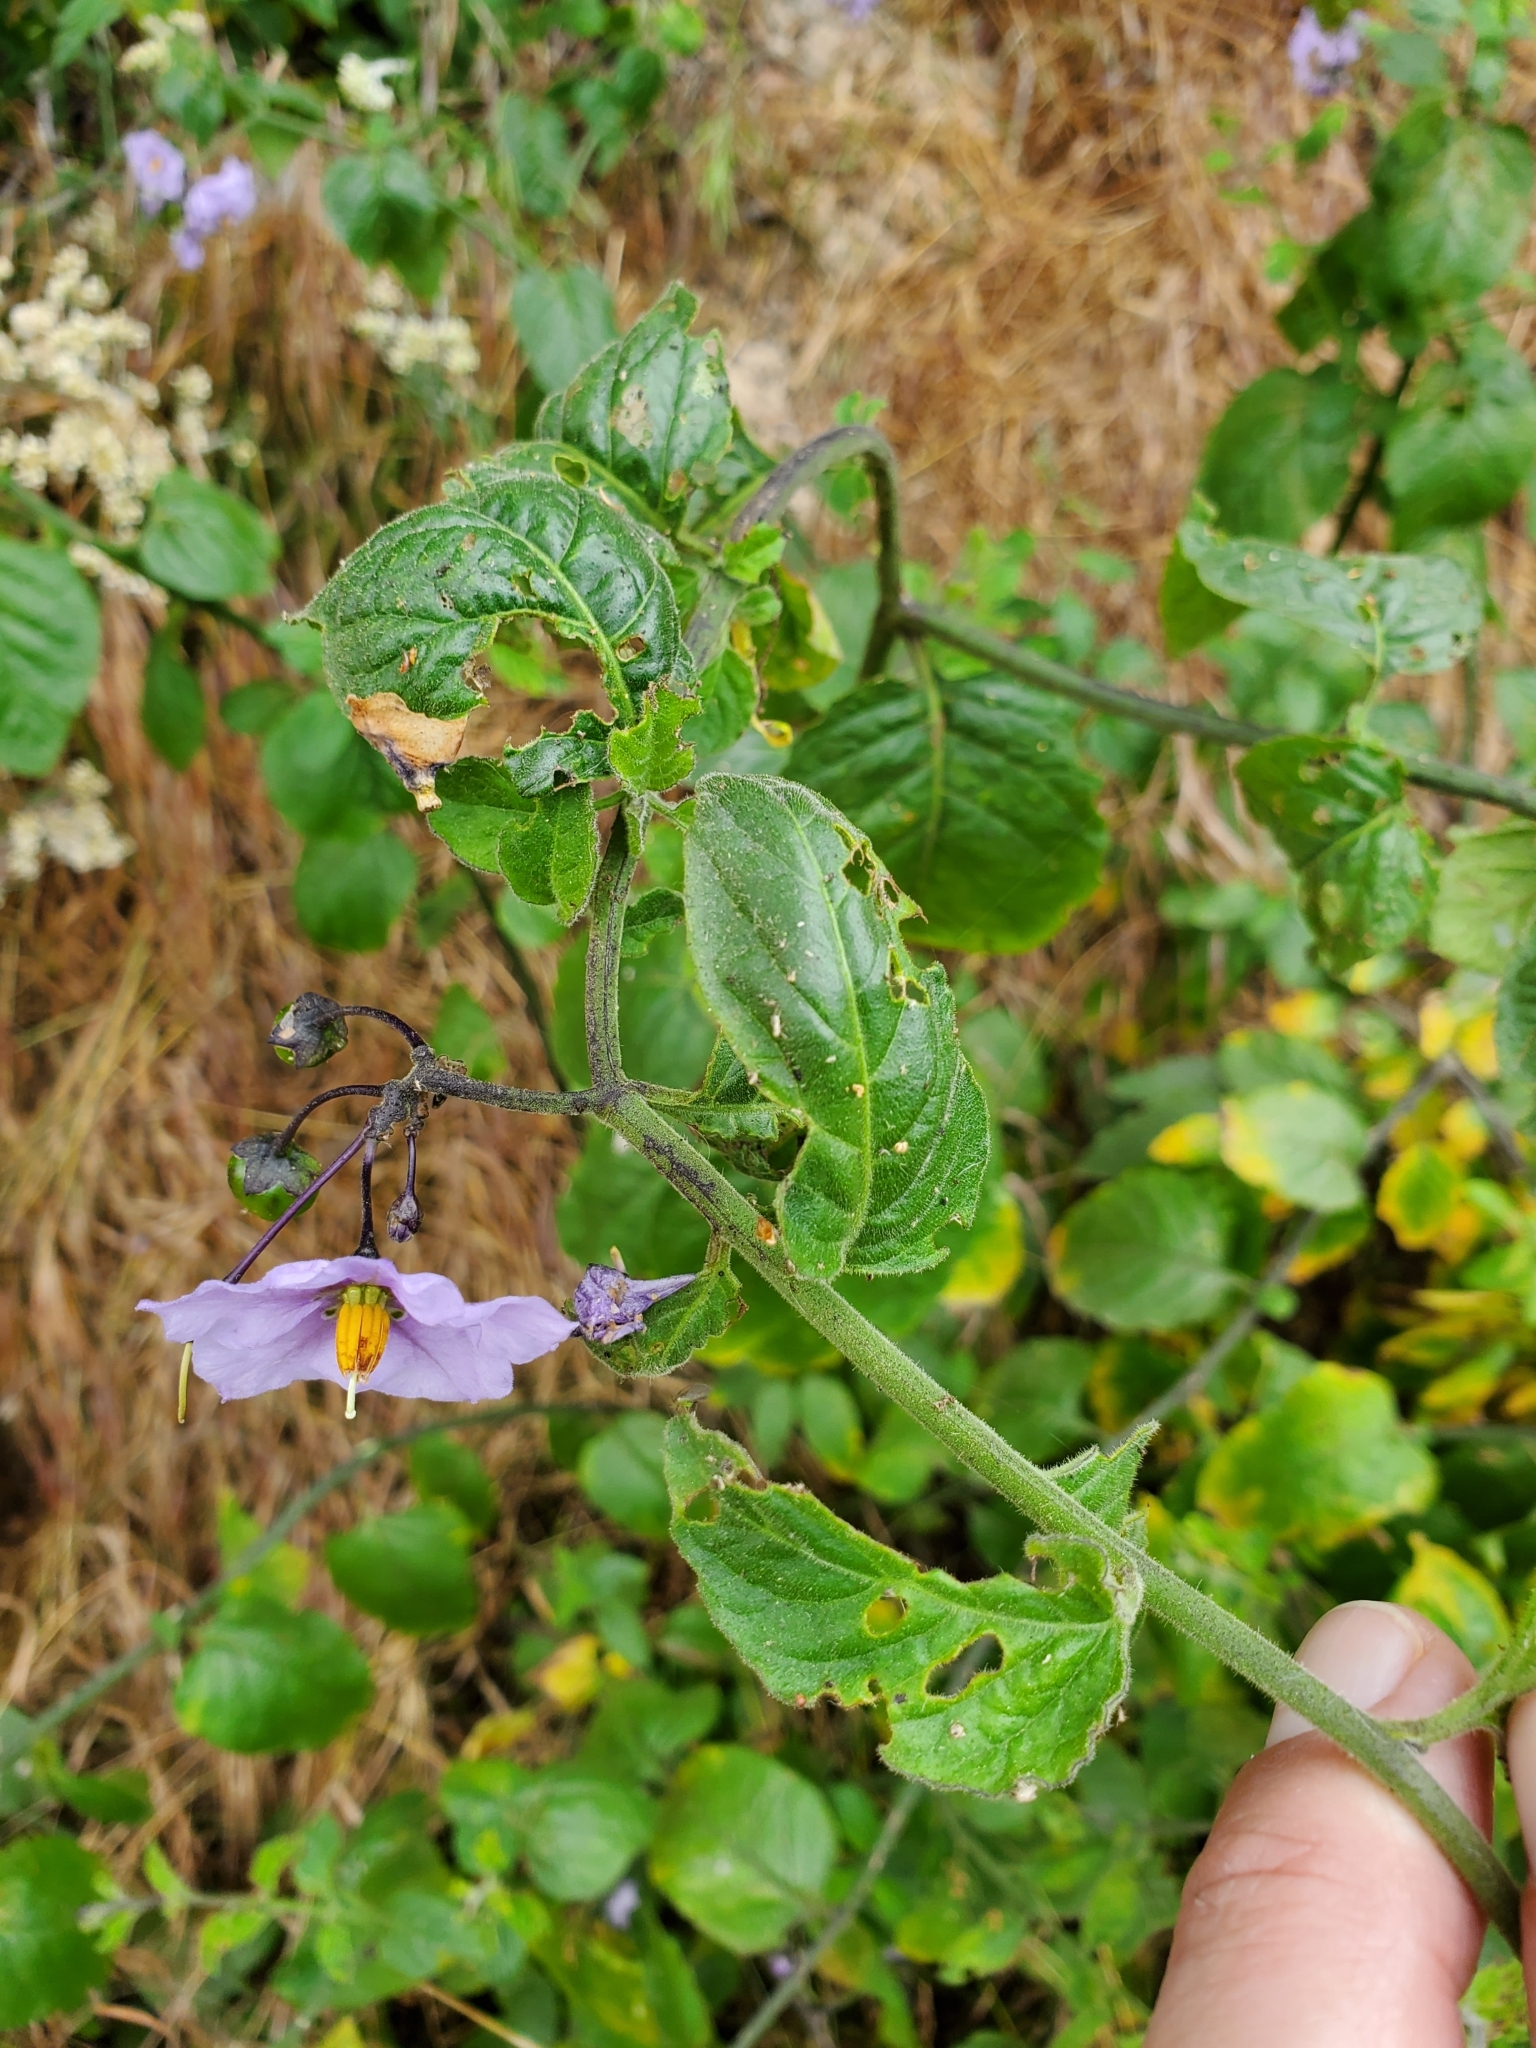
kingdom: Plantae
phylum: Tracheophyta
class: Magnoliopsida
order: Solanales
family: Solanaceae
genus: Solanum
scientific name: Solanum umbelliferum
